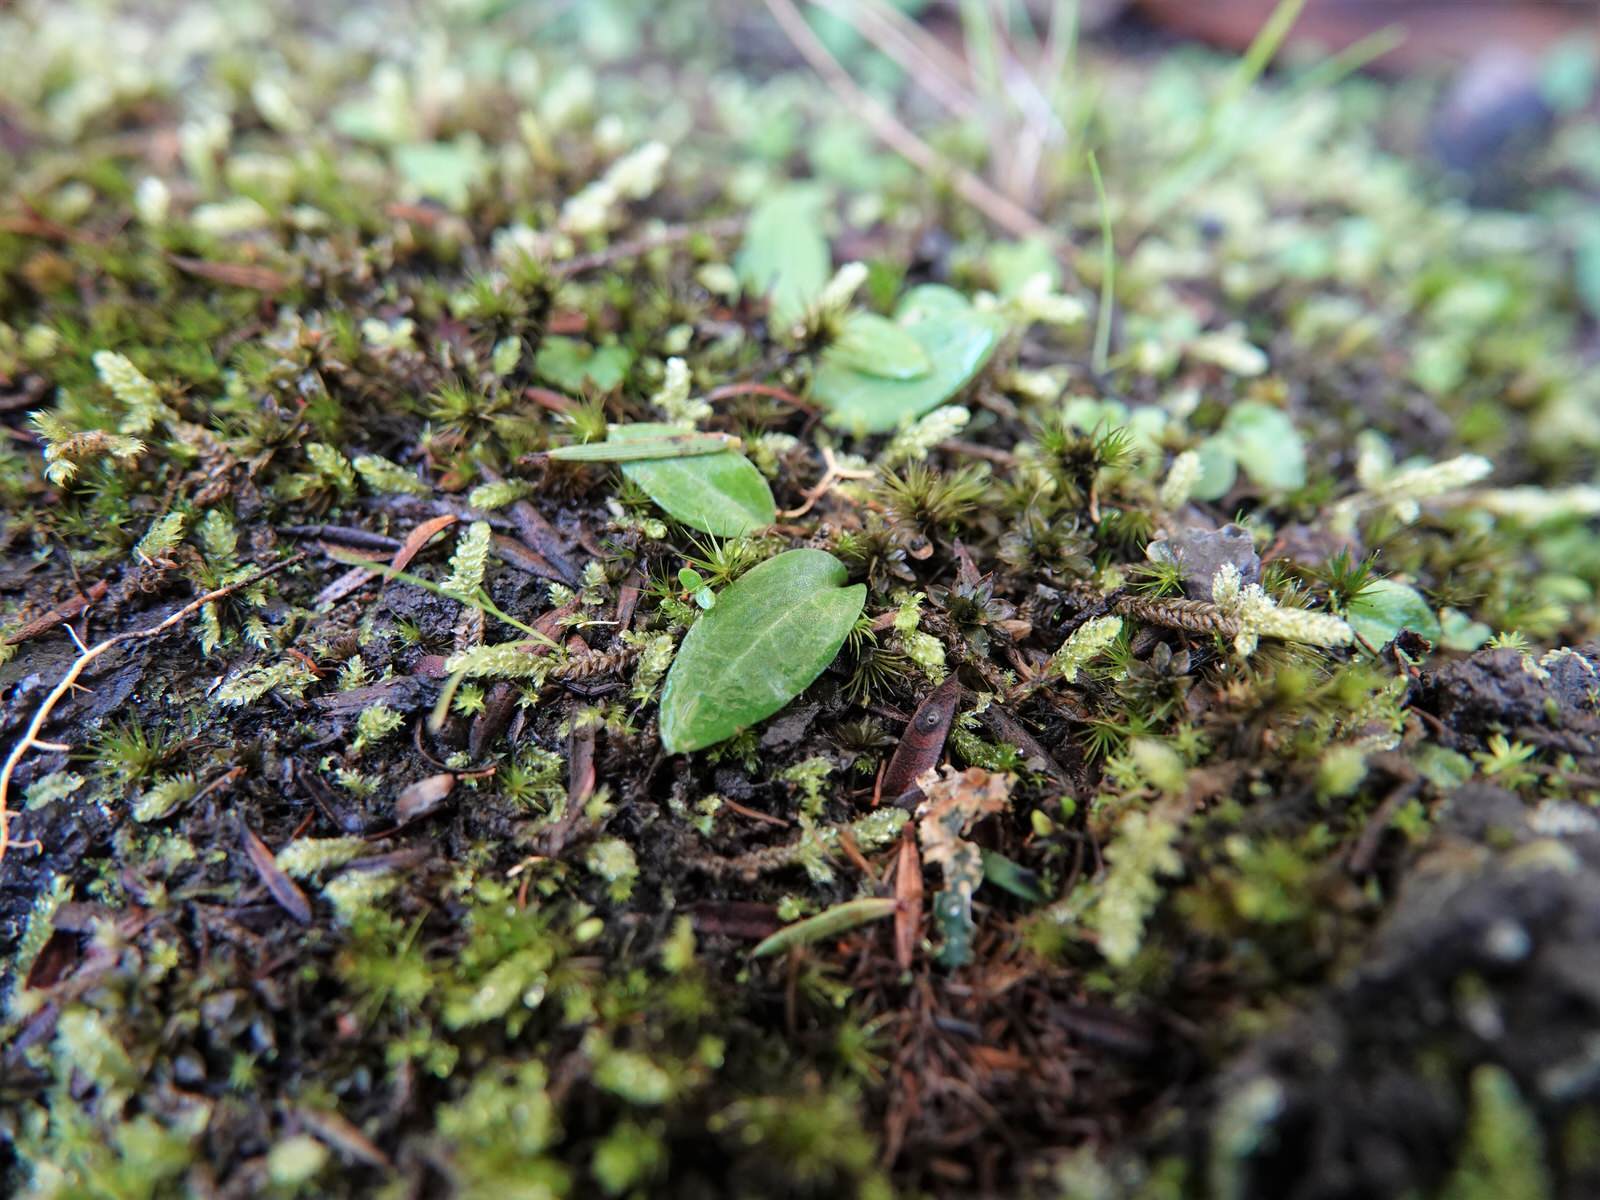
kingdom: Plantae
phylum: Tracheophyta
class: Liliopsida
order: Asparagales
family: Orchidaceae
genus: Cyrtostylis
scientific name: Cyrtostylis oblonga
